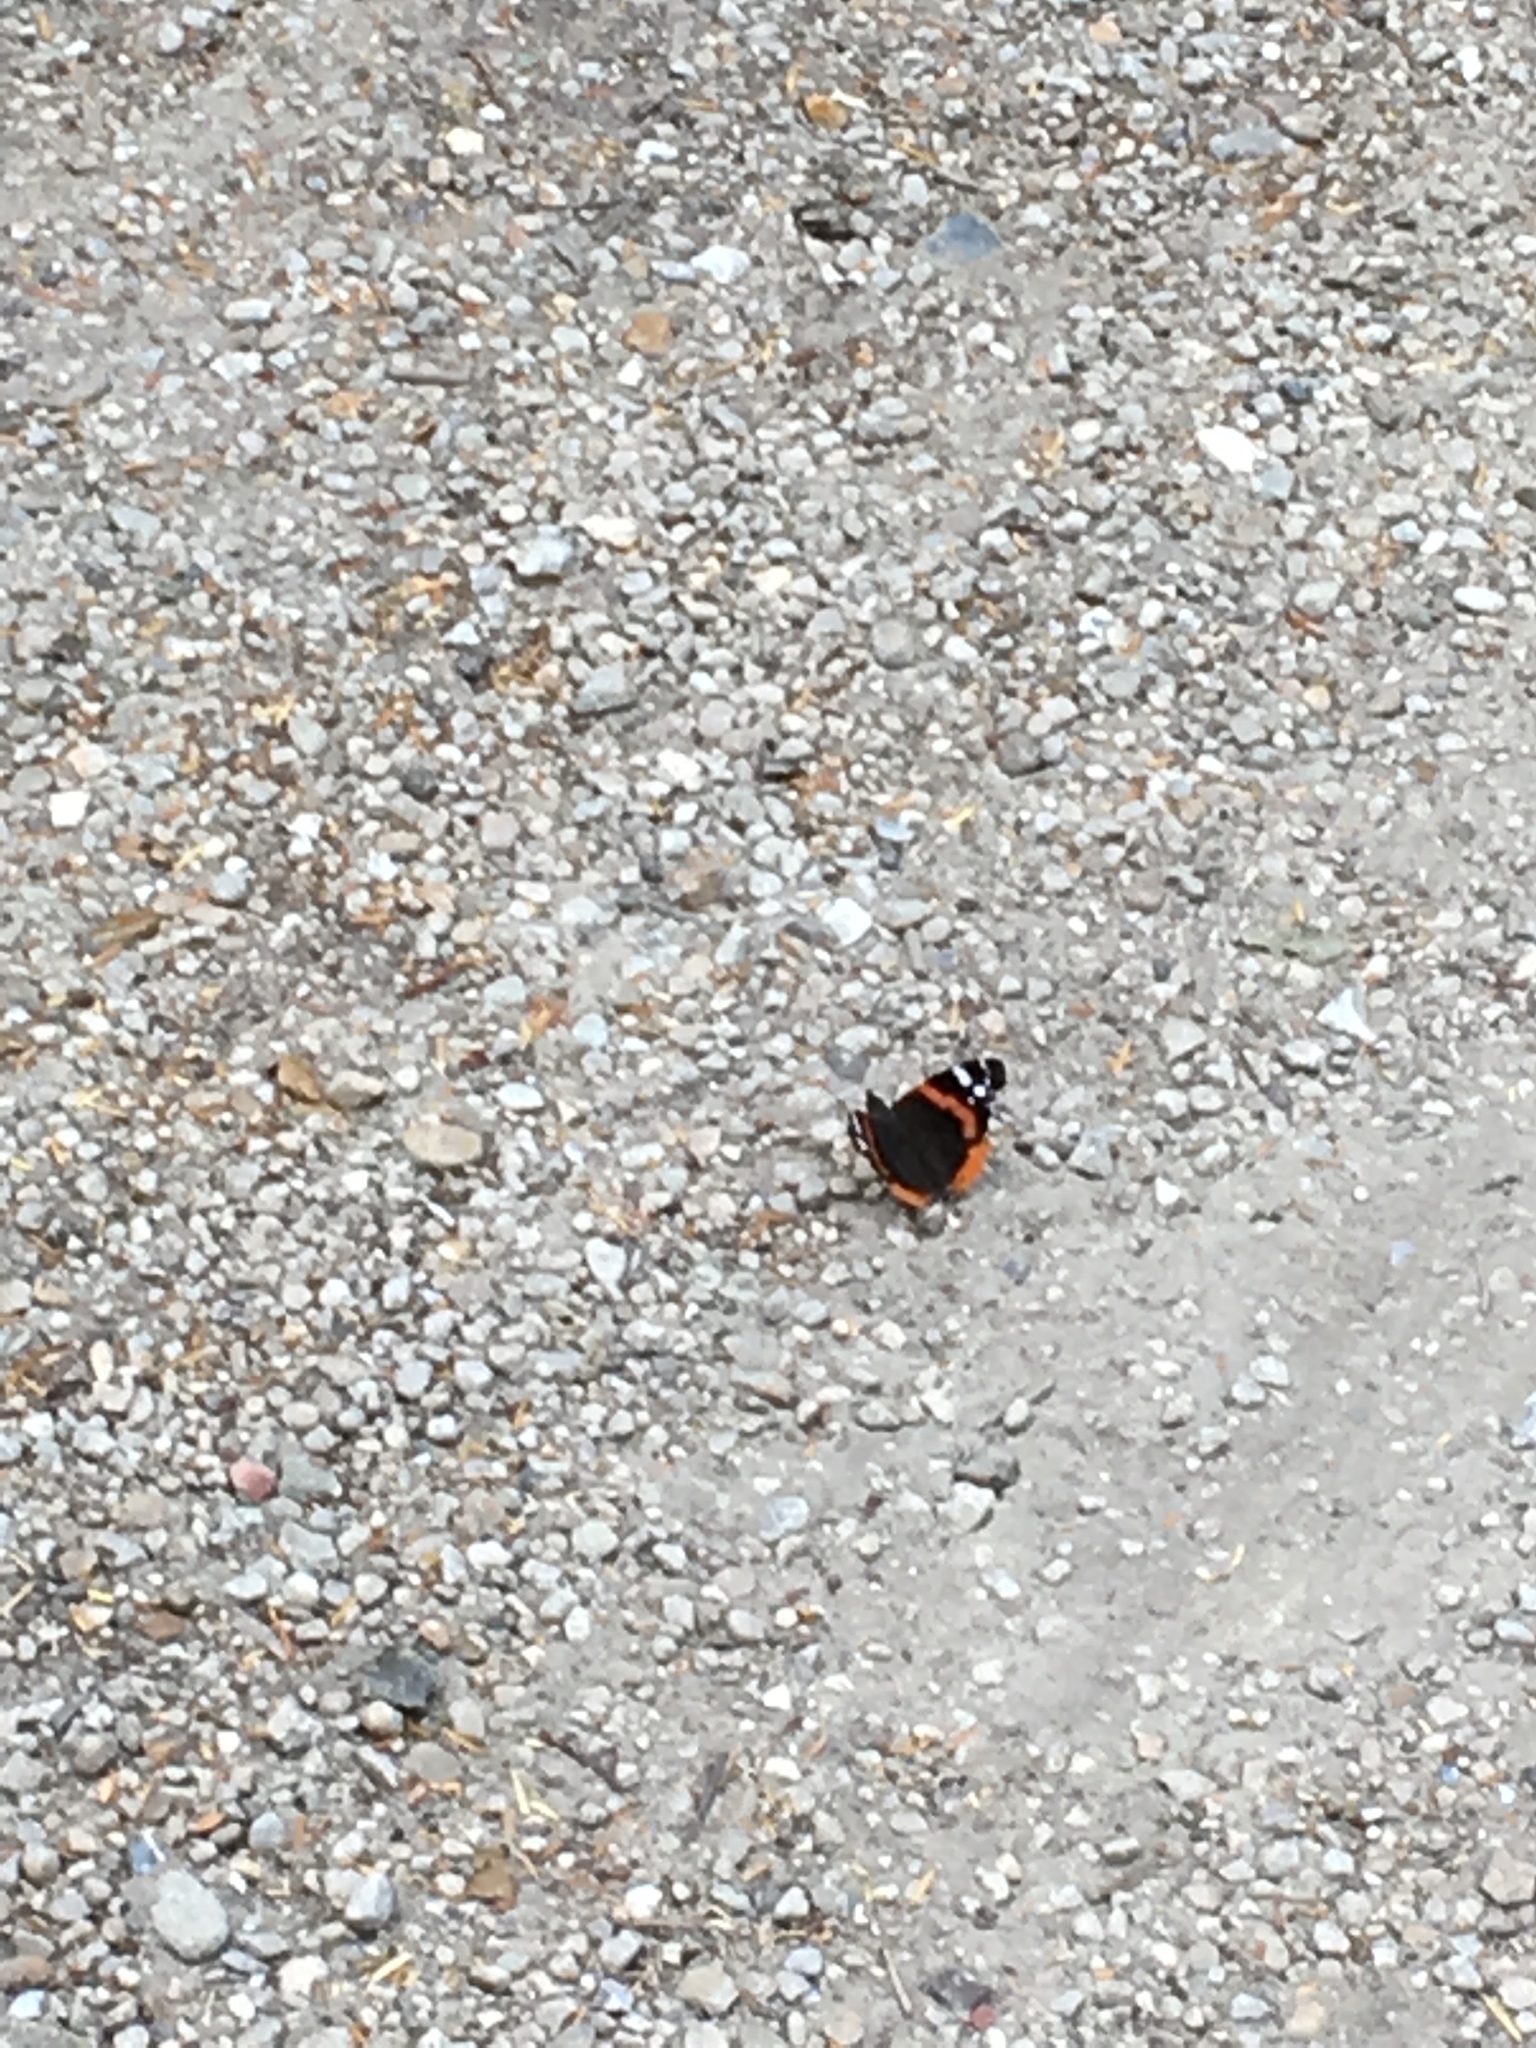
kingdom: Animalia
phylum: Arthropoda
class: Insecta
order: Lepidoptera
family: Nymphalidae
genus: Vanessa
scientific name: Vanessa atalanta
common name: Red admiral
